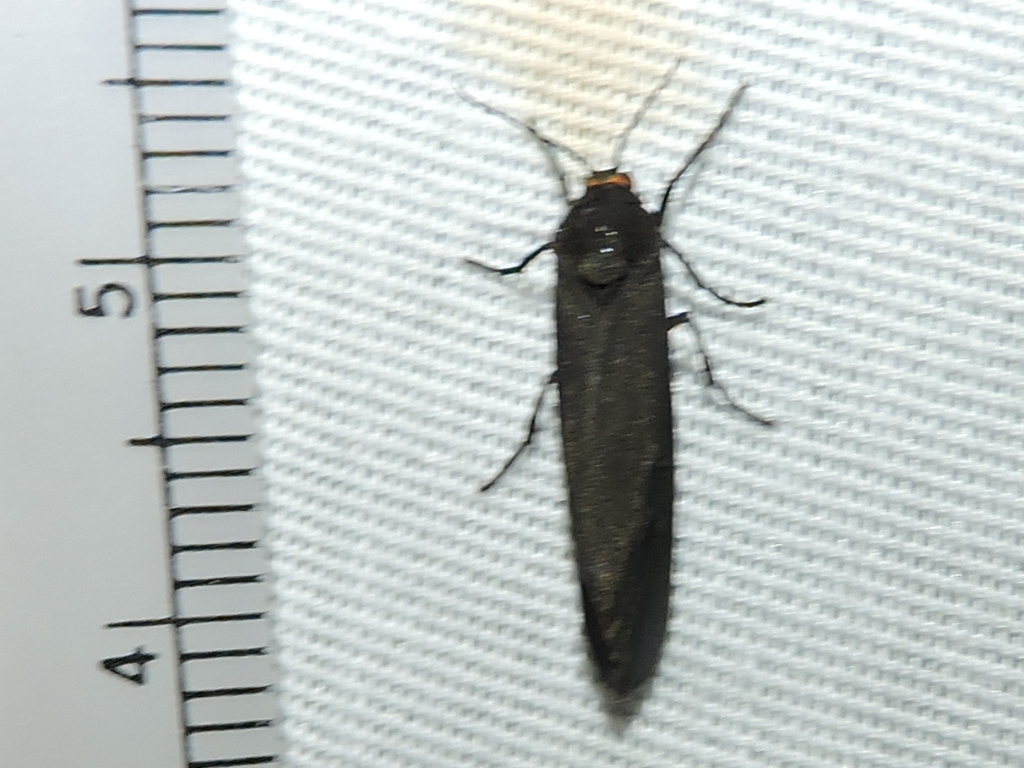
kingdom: Animalia
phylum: Arthropoda
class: Insecta
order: Lepidoptera
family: Erebidae
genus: Virbia
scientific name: Virbia laeta
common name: Joyful holomelina moth
